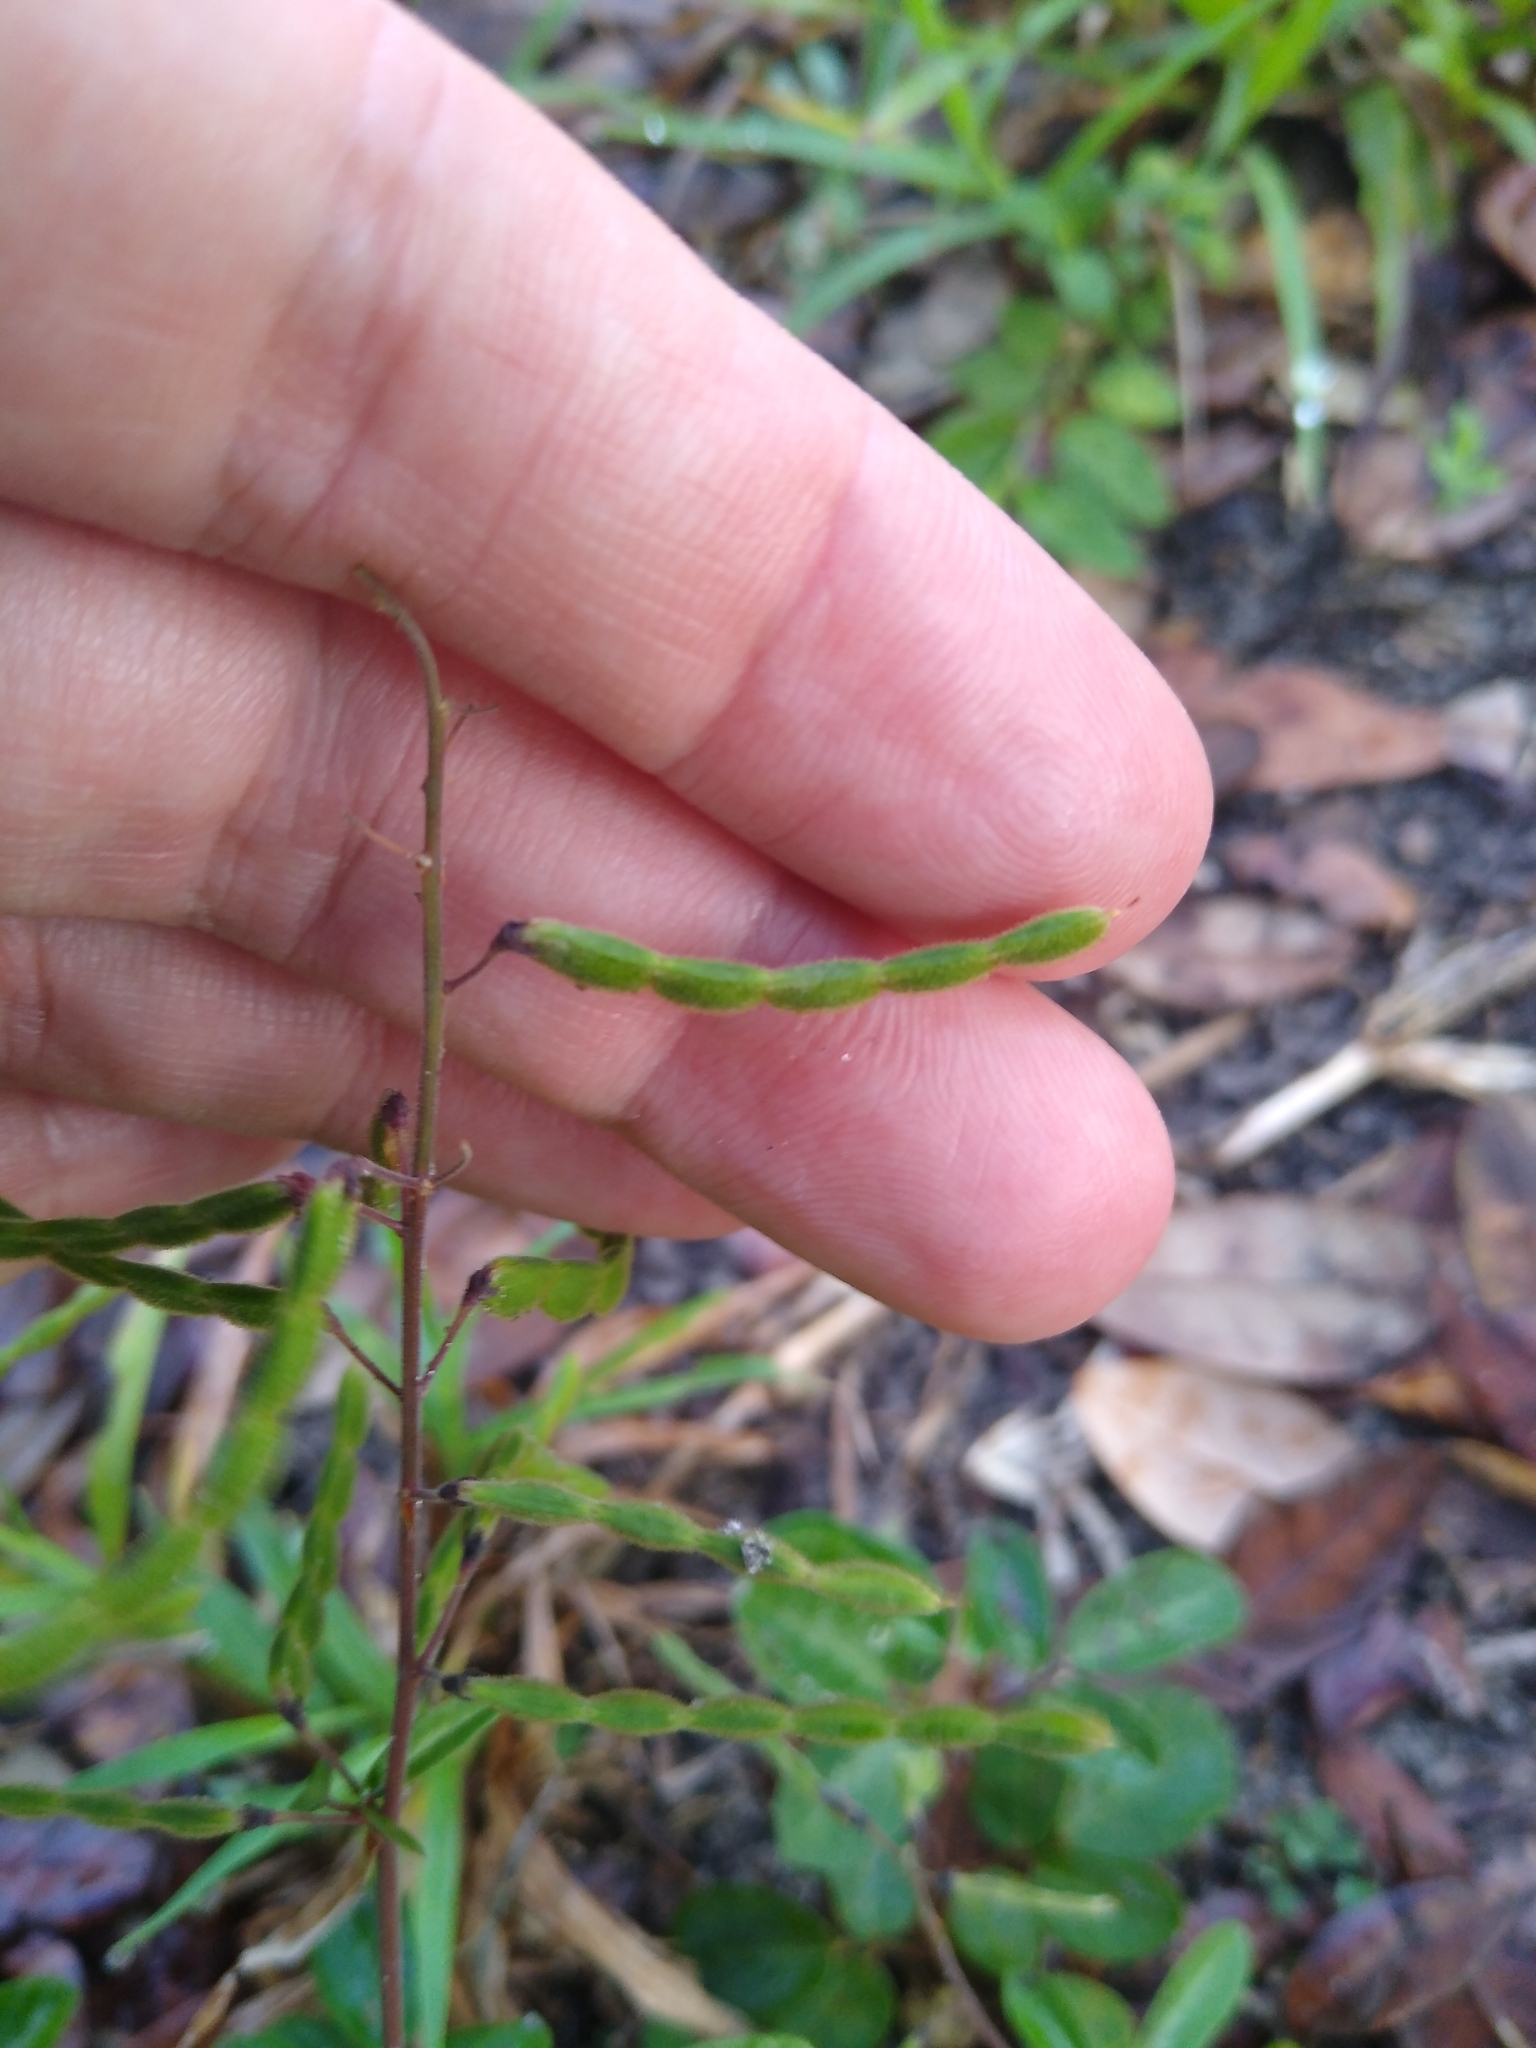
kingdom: Plantae
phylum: Tracheophyta
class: Magnoliopsida
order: Fabales
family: Fabaceae
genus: Desmodium
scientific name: Desmodium incanum
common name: Tickclover
